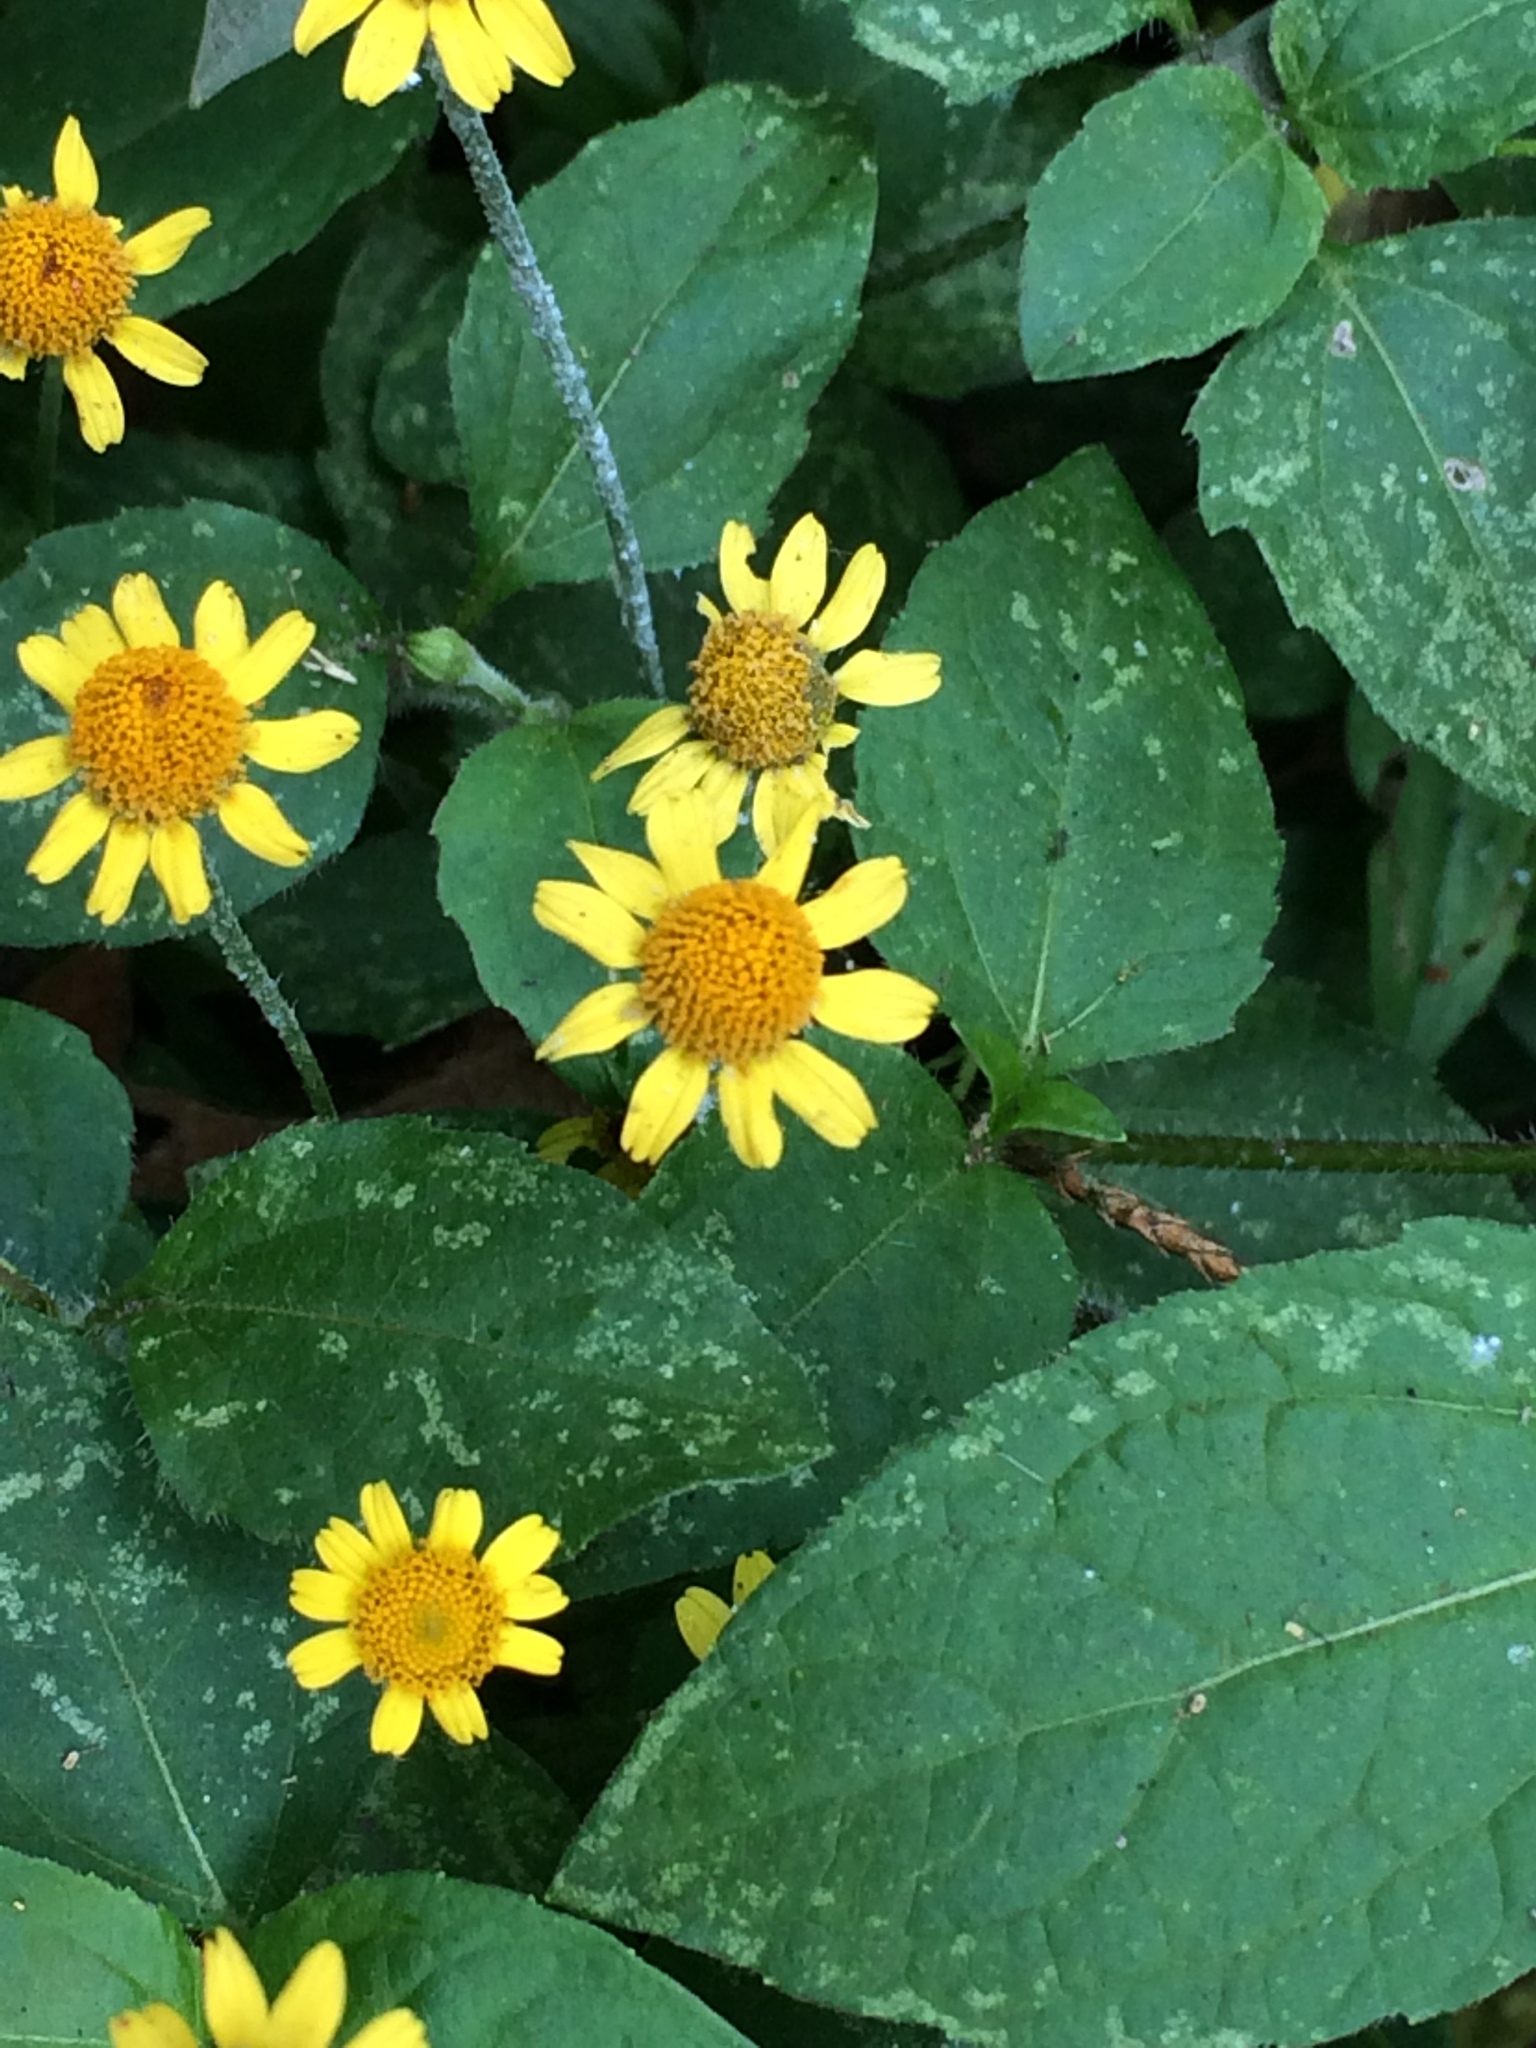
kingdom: Plantae
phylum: Tracheophyta
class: Magnoliopsida
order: Asterales
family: Asteraceae
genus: Acmella
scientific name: Acmella repens
